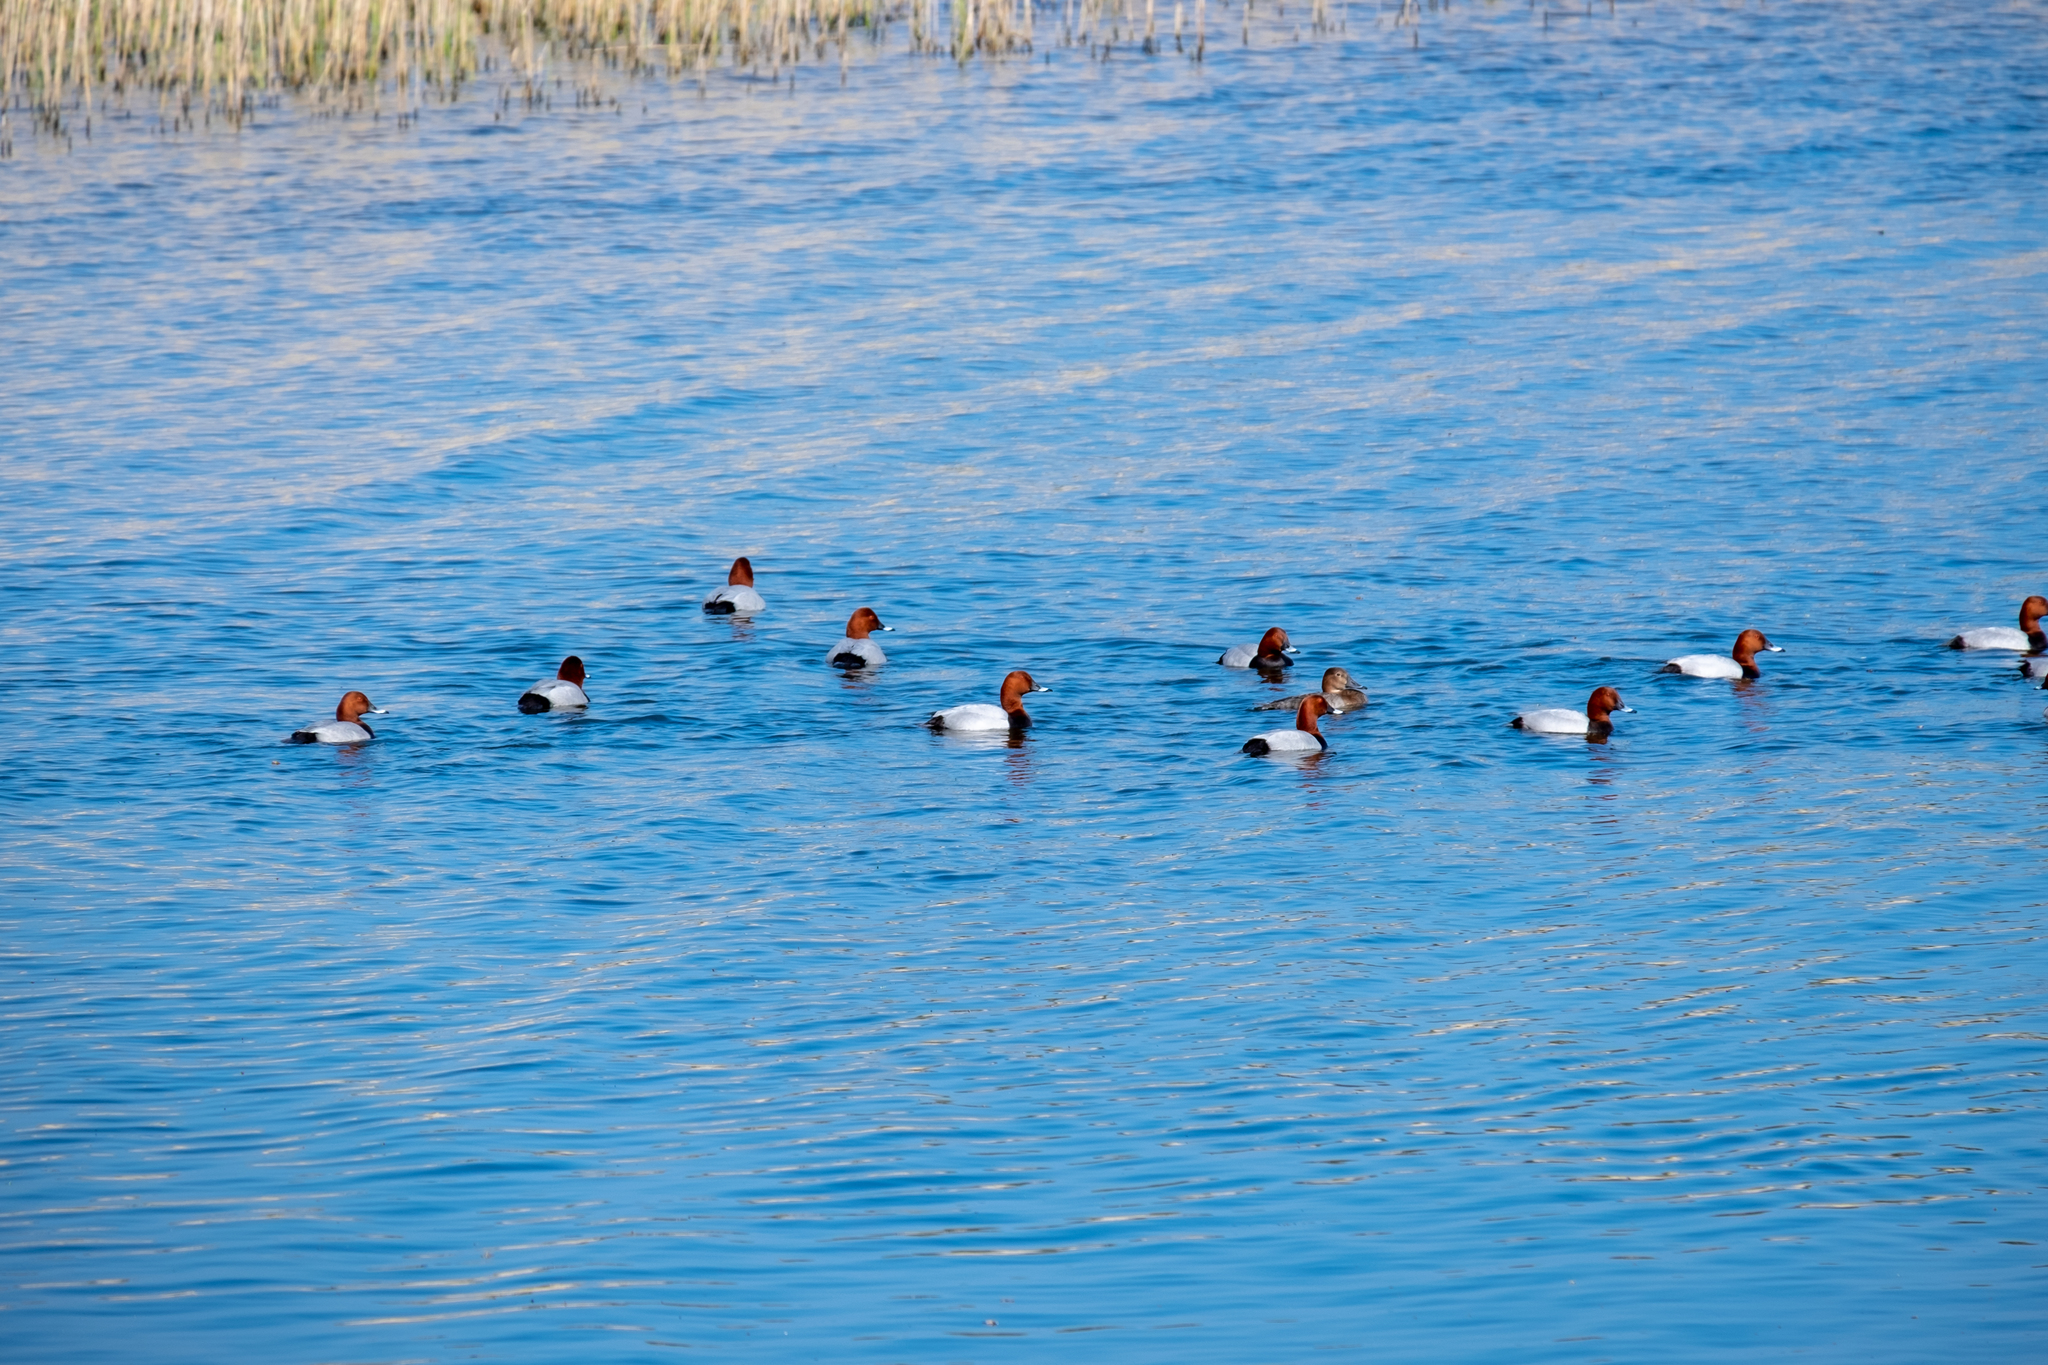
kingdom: Animalia
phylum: Chordata
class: Aves
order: Anseriformes
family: Anatidae
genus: Aythya
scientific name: Aythya ferina
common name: Common pochard
